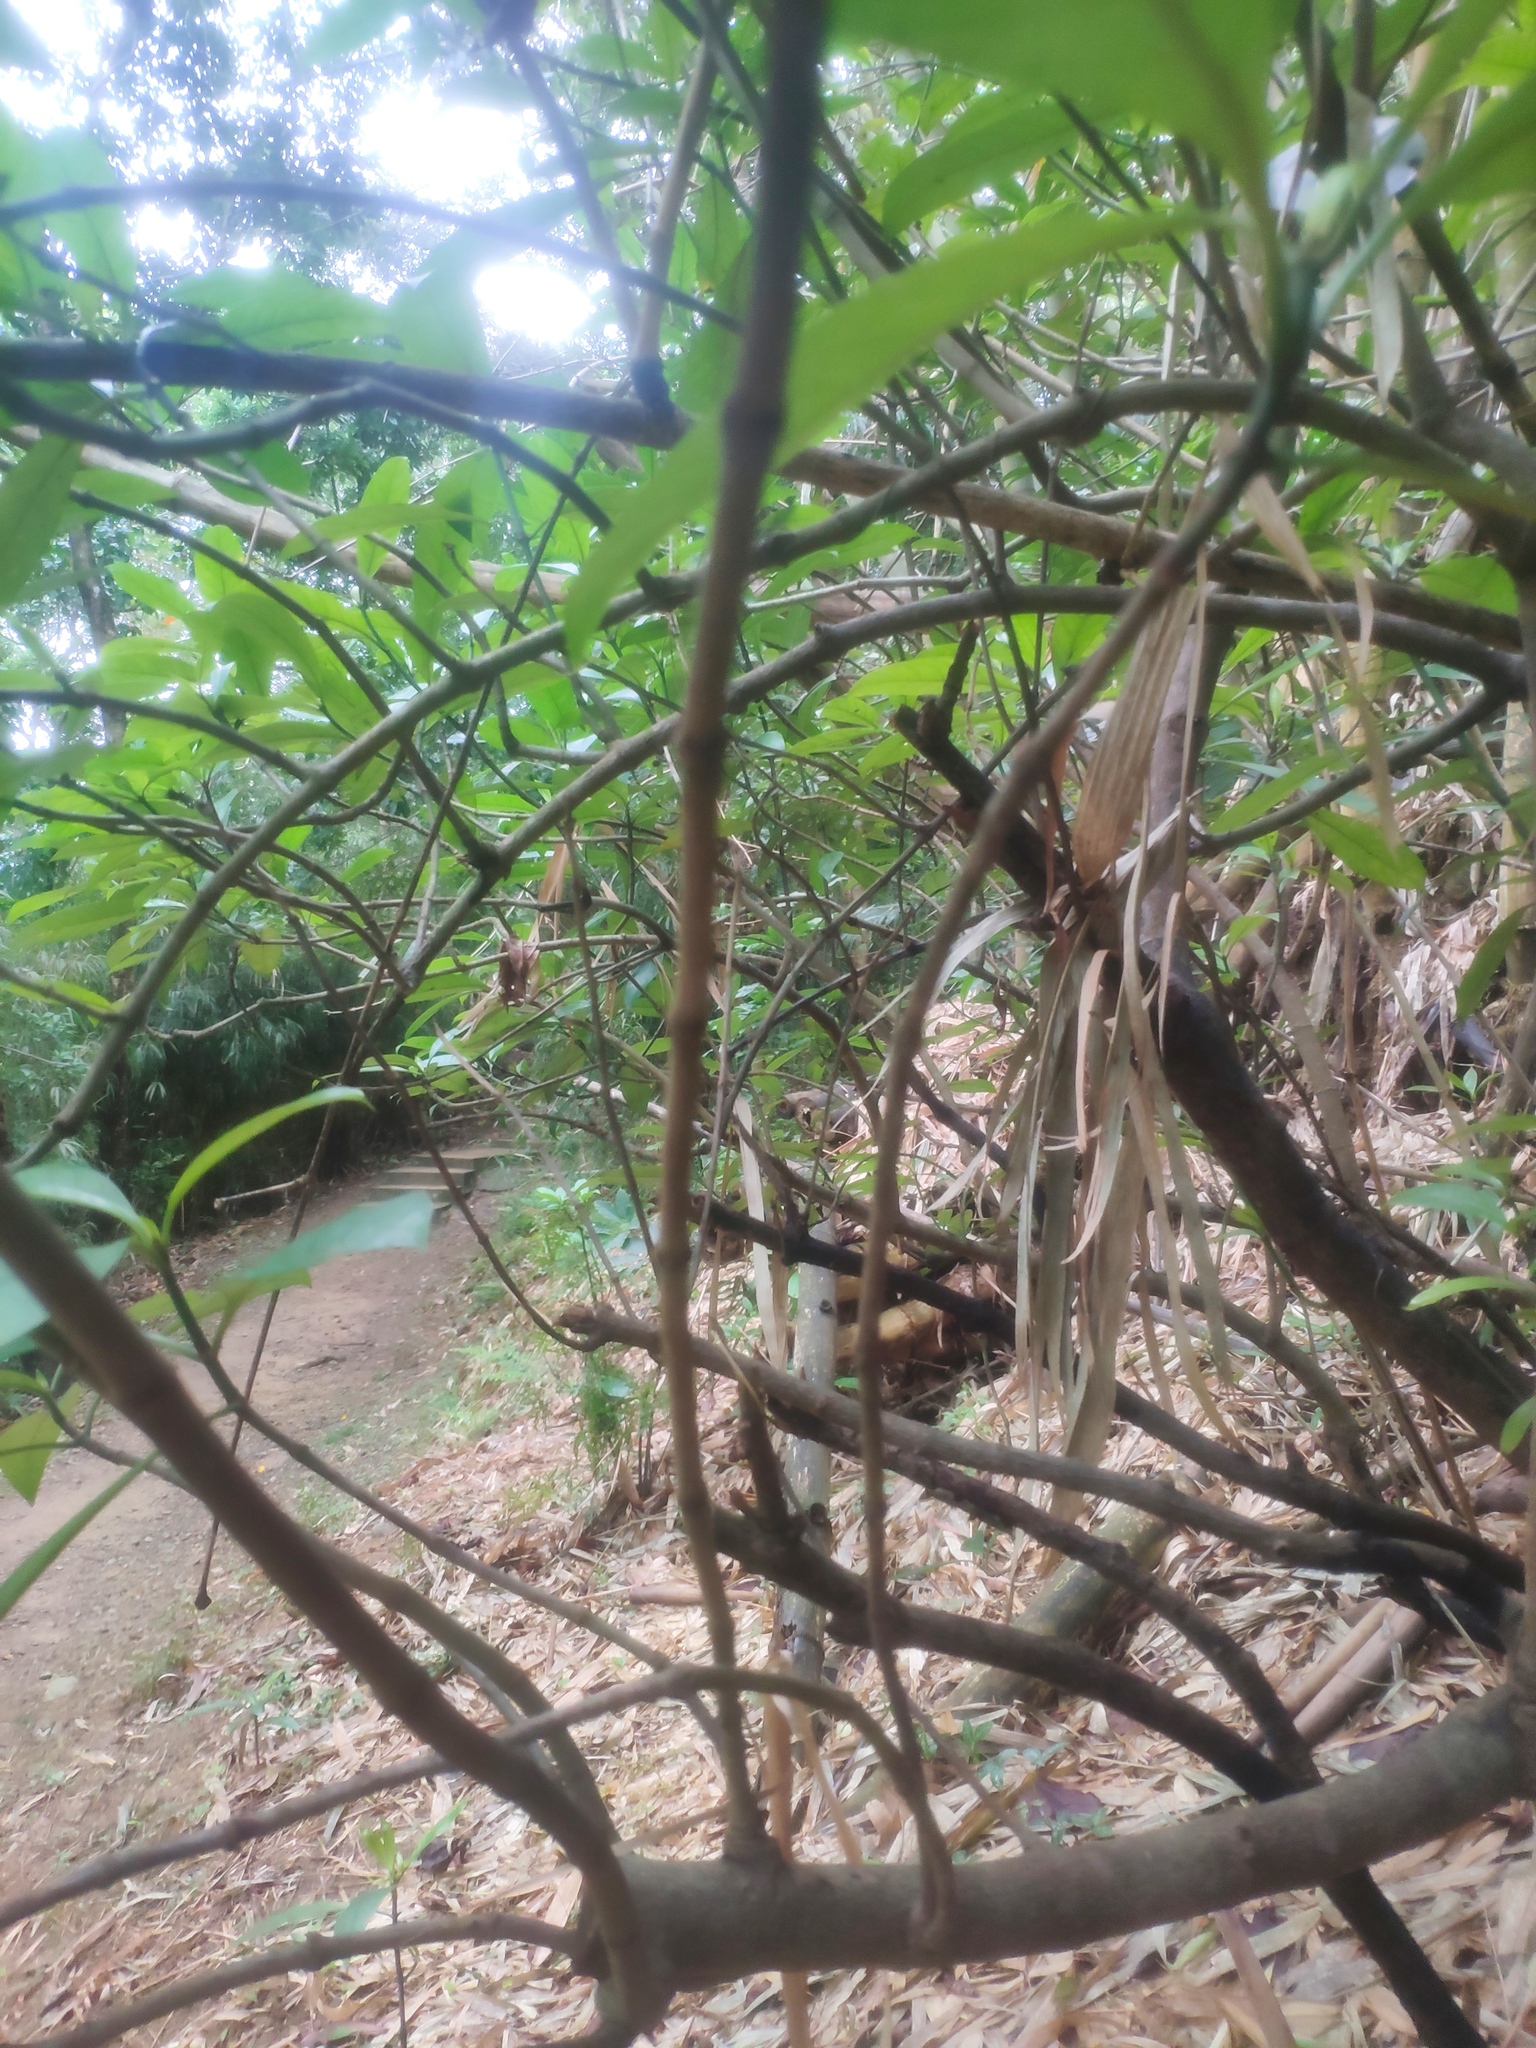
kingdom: Plantae
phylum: Tracheophyta
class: Magnoliopsida
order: Gentianales
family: Rubiaceae
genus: Psychotria
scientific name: Psychotria asiatica
